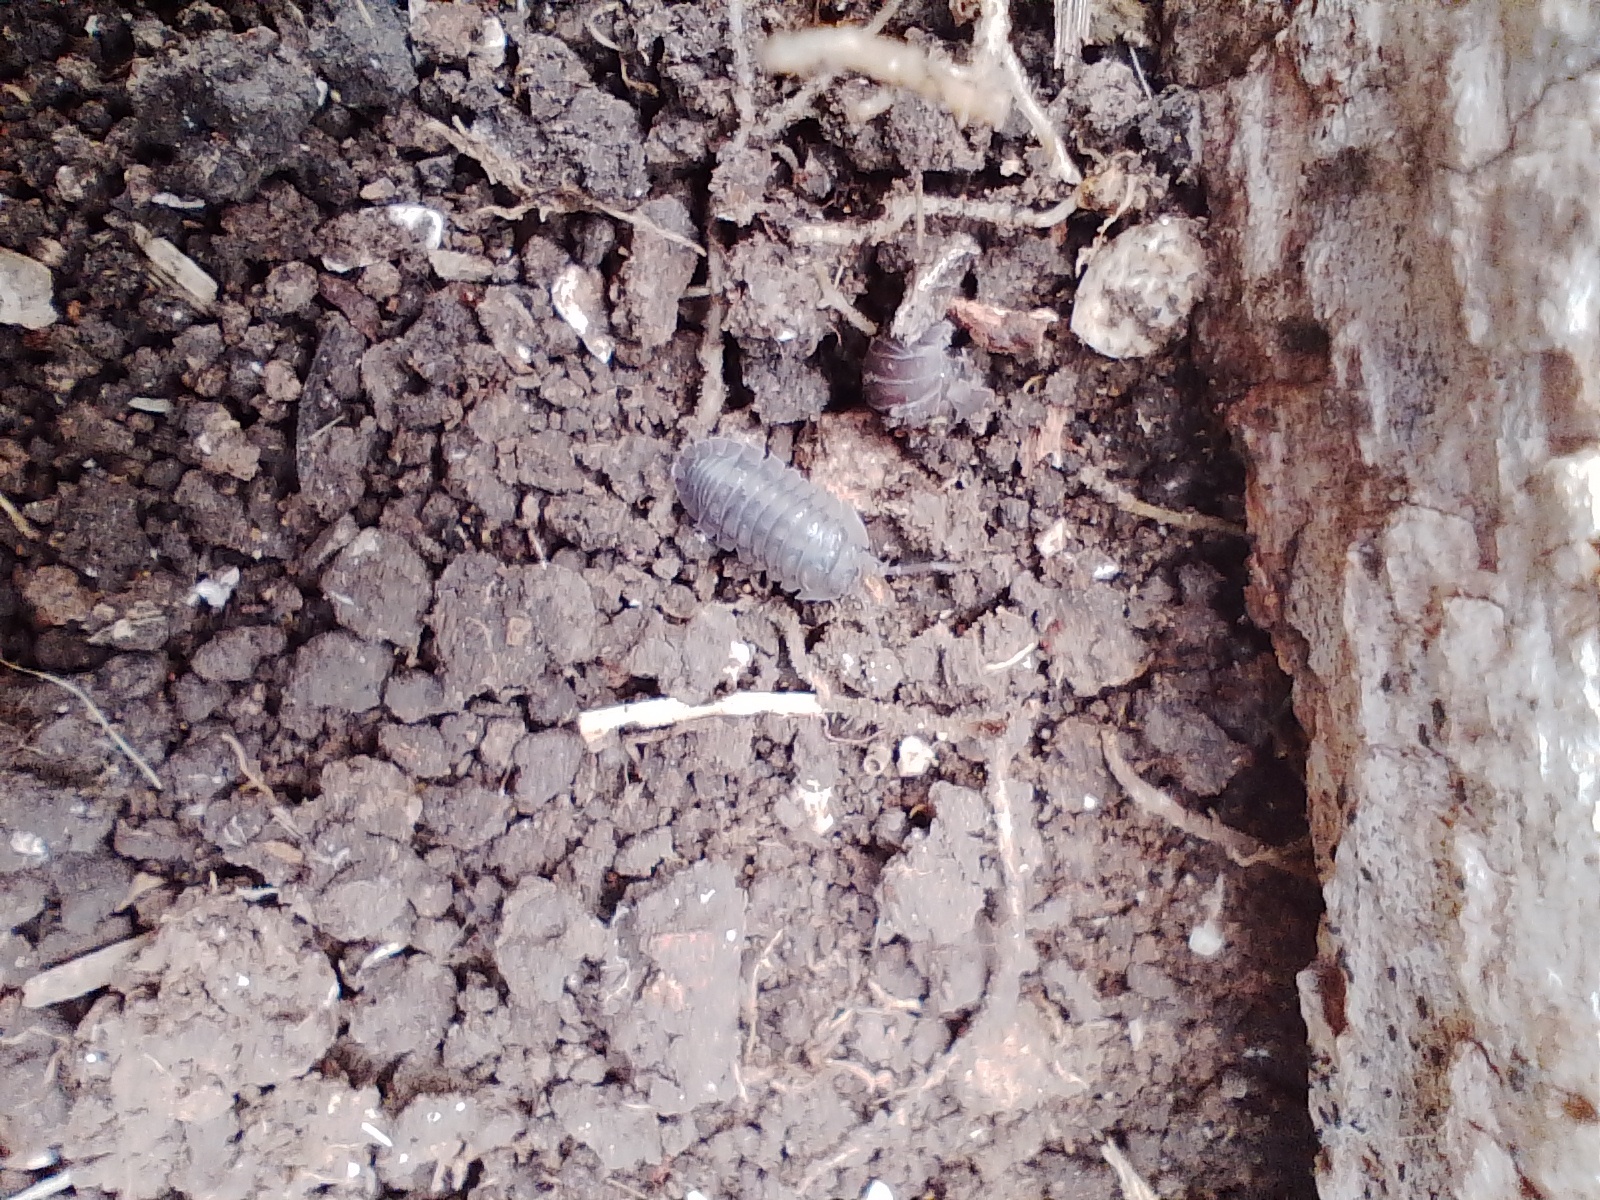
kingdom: Animalia
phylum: Arthropoda
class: Malacostraca
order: Isopoda
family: Armadillidiidae
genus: Armadillidium
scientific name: Armadillidium nasatum
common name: Isopod
